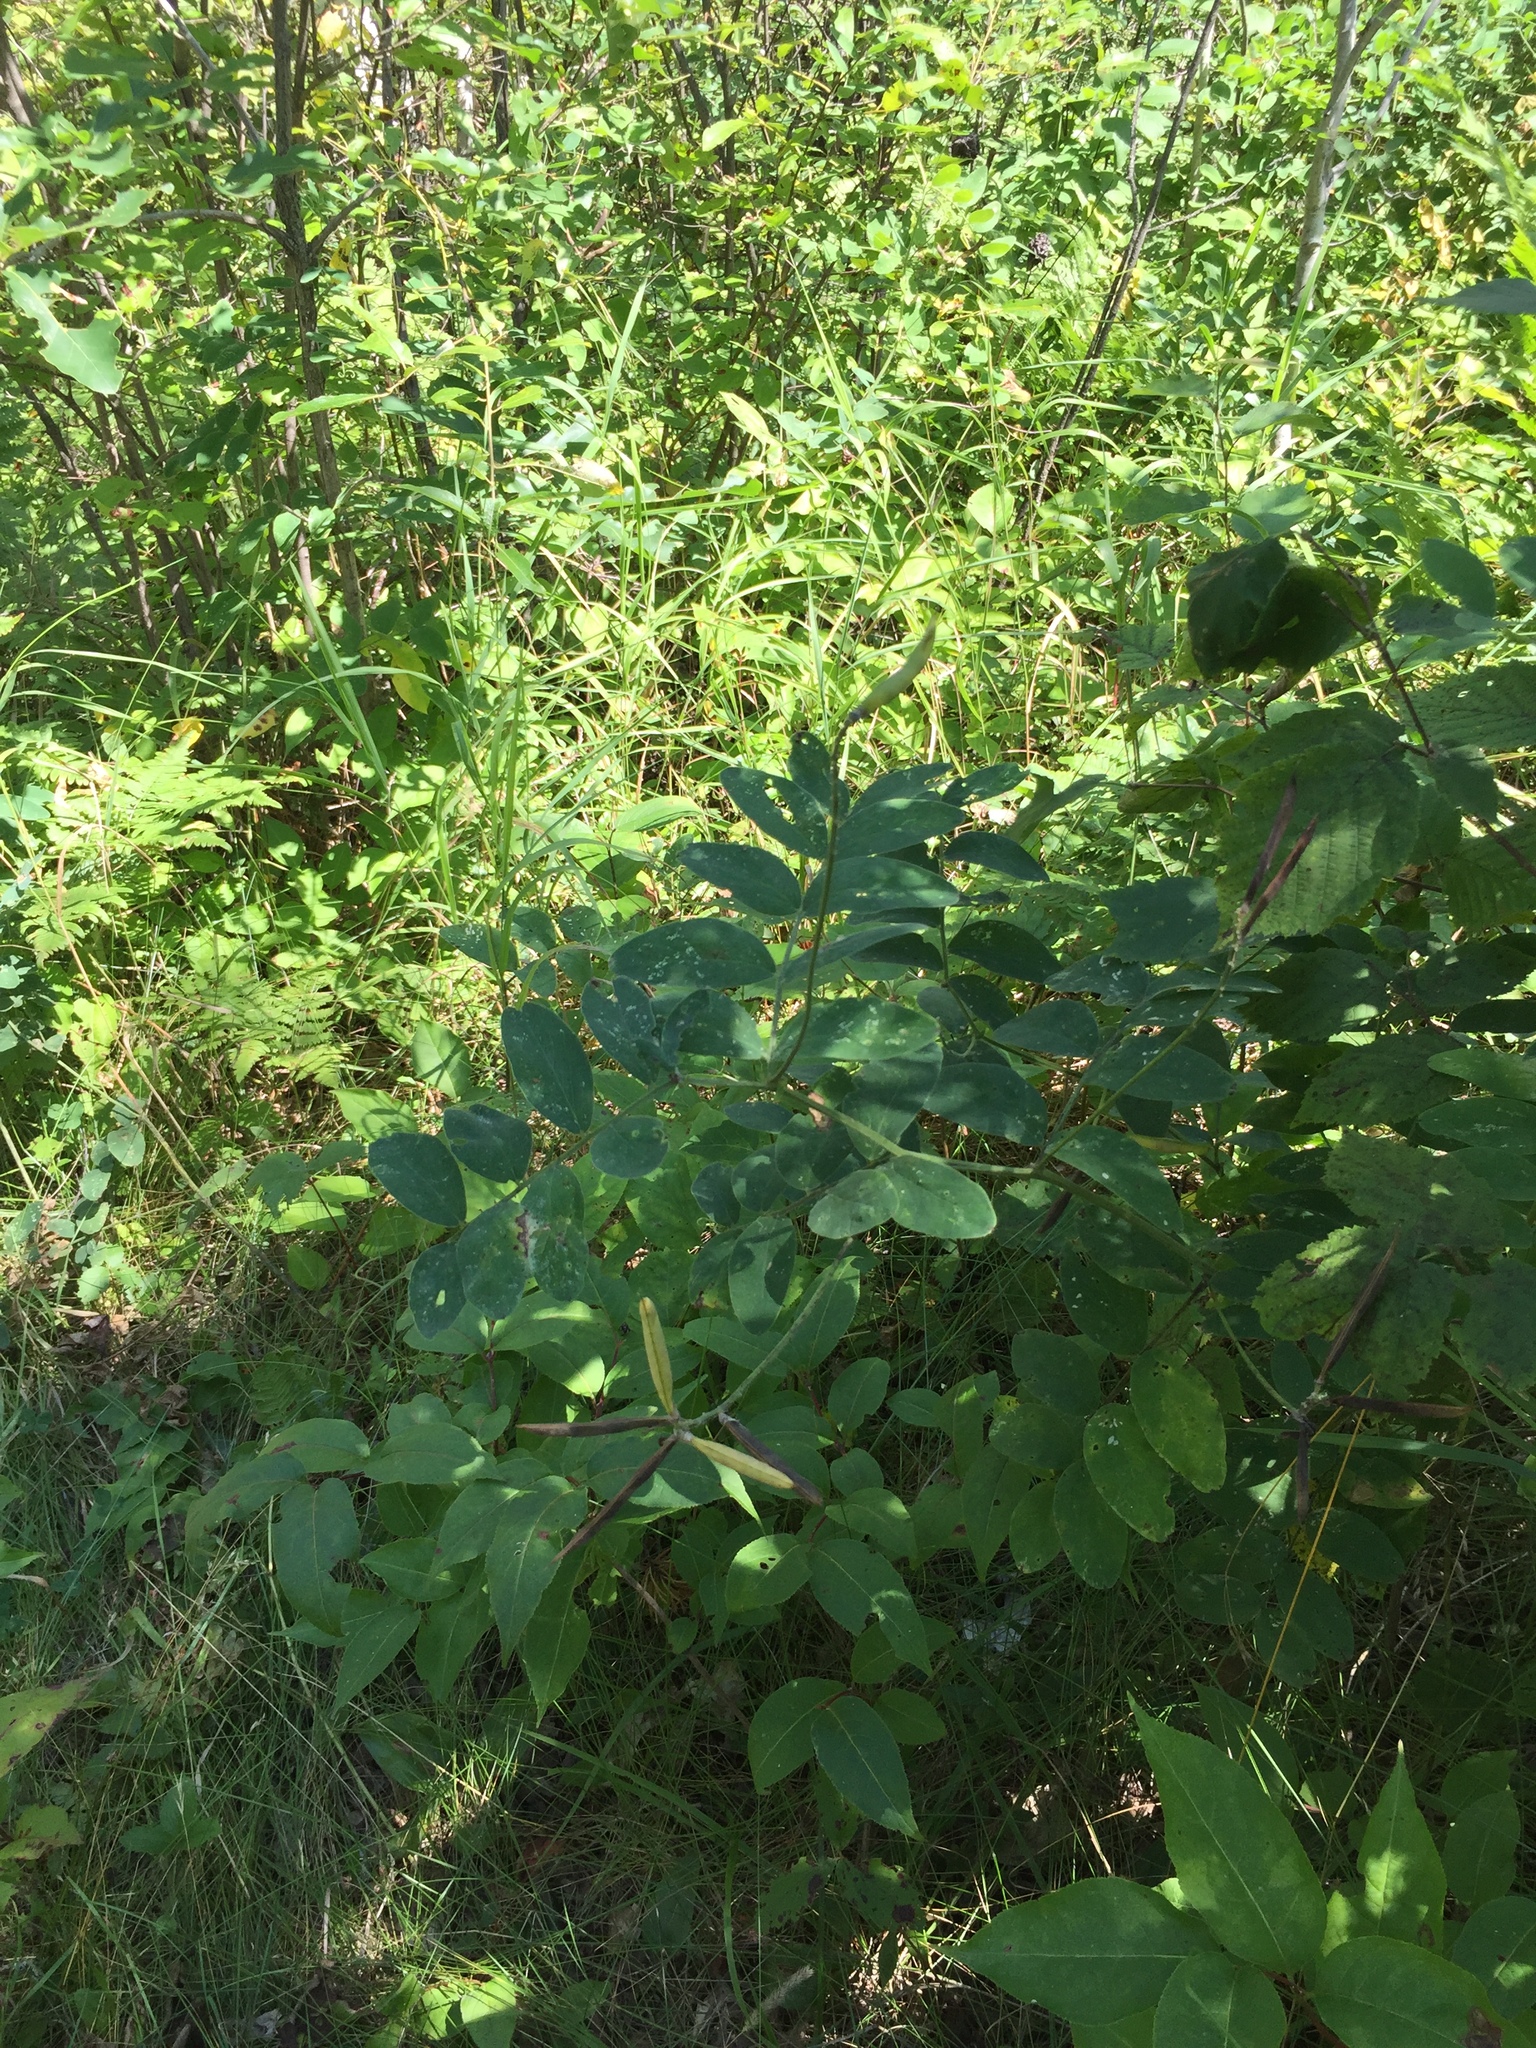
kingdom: Plantae
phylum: Tracheophyta
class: Magnoliopsida
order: Fabales
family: Fabaceae
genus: Lathyrus
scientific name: Lathyrus venosus
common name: Forest-pea
